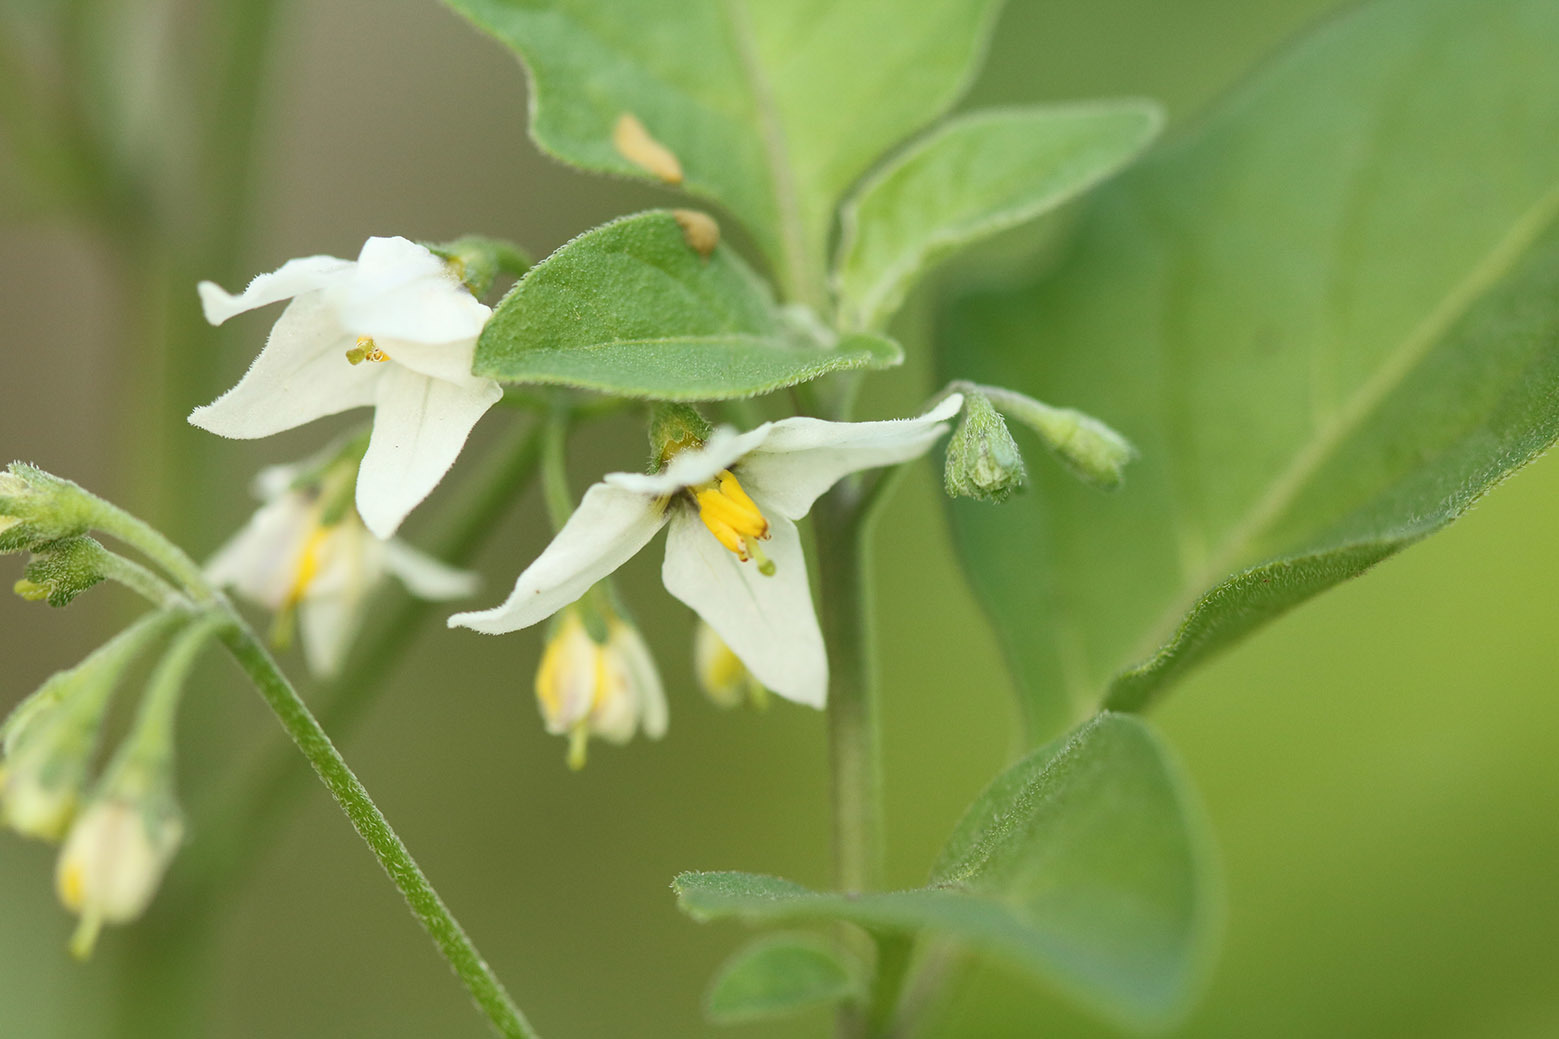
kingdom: Plantae
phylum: Tracheophyta
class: Magnoliopsida
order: Solanales
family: Solanaceae
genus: Solanum
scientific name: Solanum chenopodioides
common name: Tall nightshade
